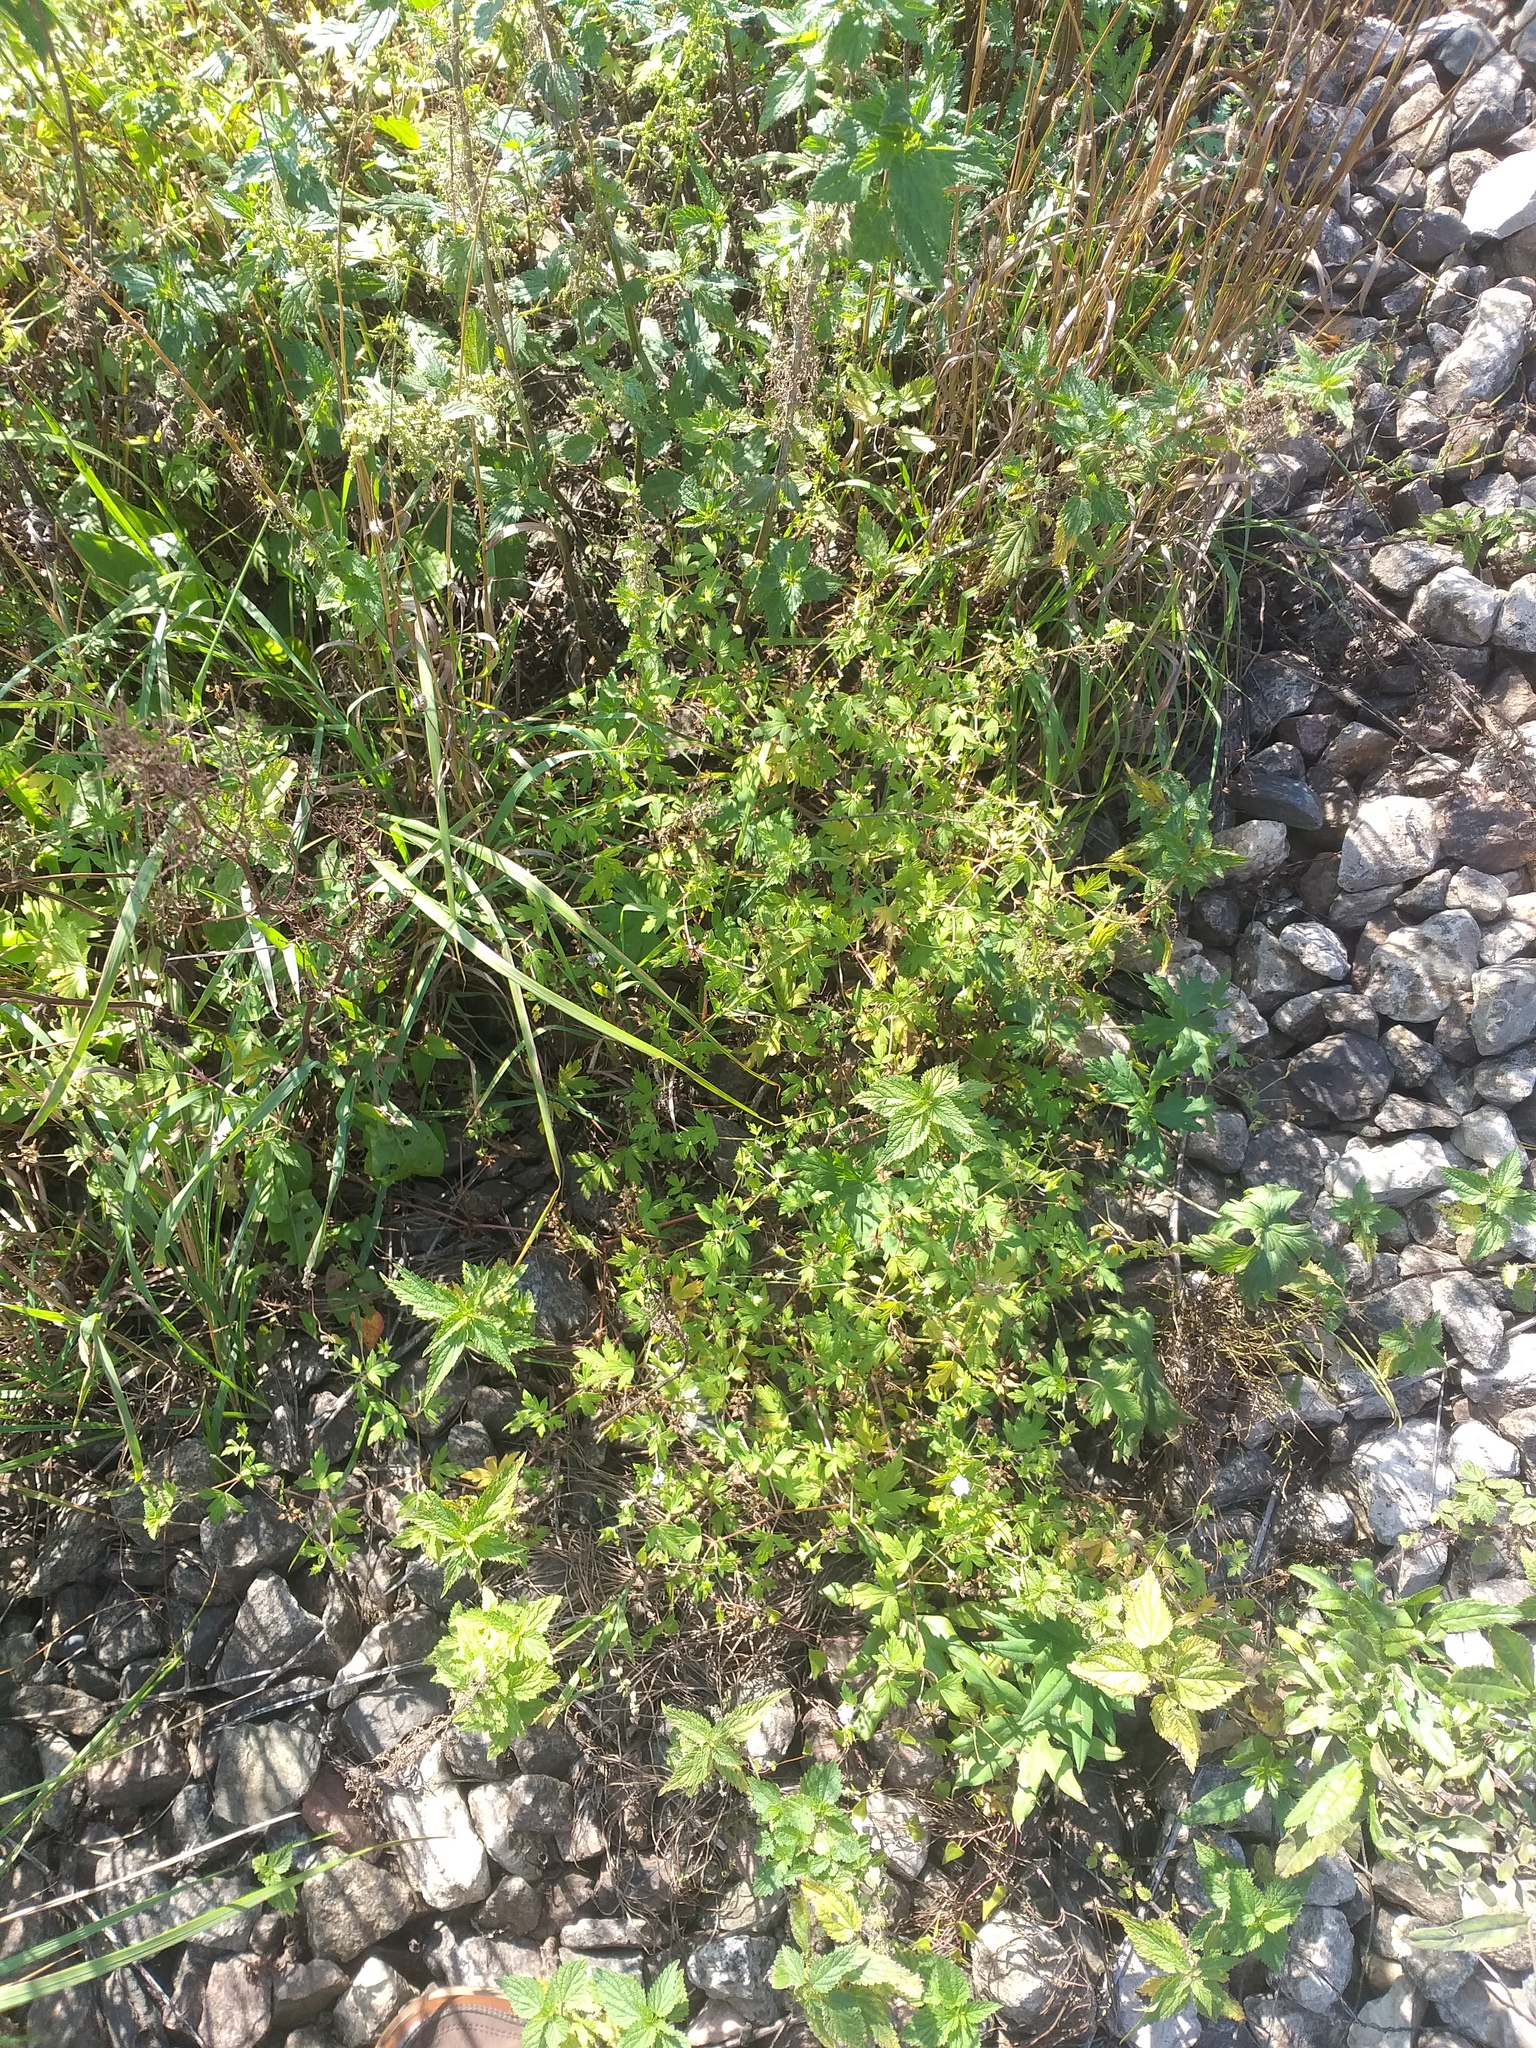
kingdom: Plantae
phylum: Tracheophyta
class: Magnoliopsida
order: Geraniales
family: Geraniaceae
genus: Geranium
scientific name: Geranium sibiricum
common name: Siberian crane's-bill
